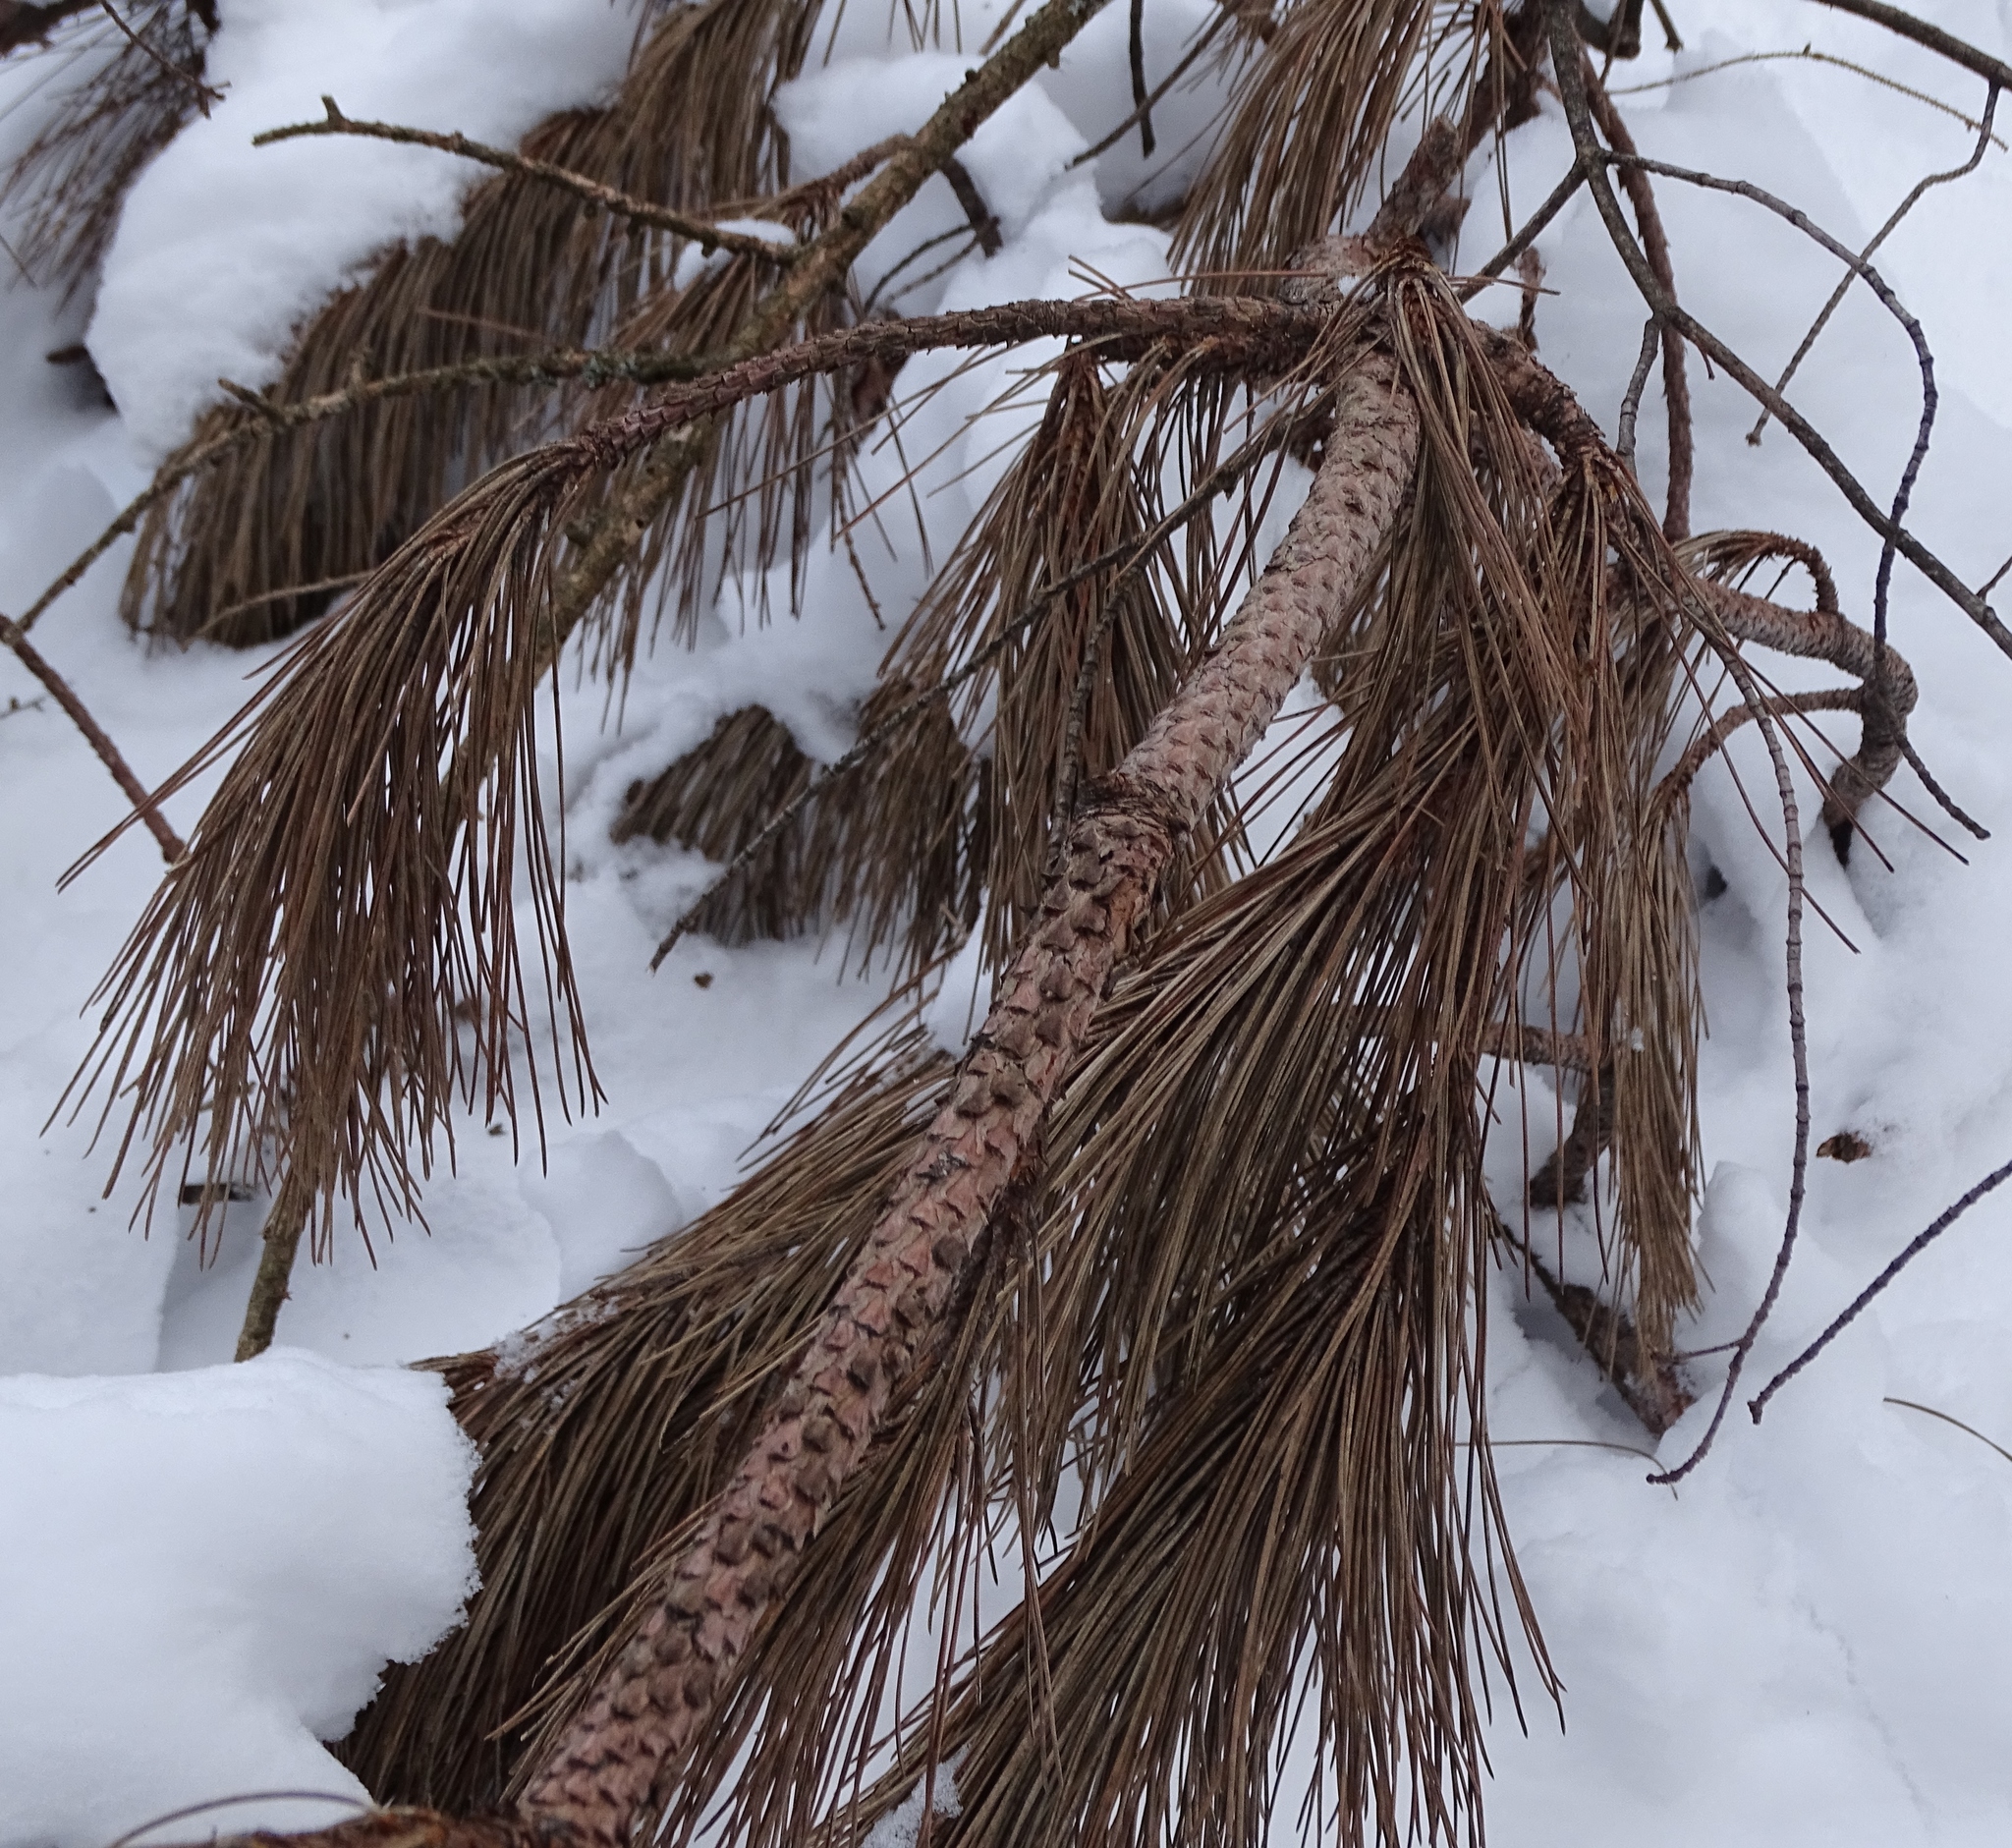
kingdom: Plantae
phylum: Tracheophyta
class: Pinopsida
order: Pinales
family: Pinaceae
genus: Pinus
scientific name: Pinus resinosa
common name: Norway pine
